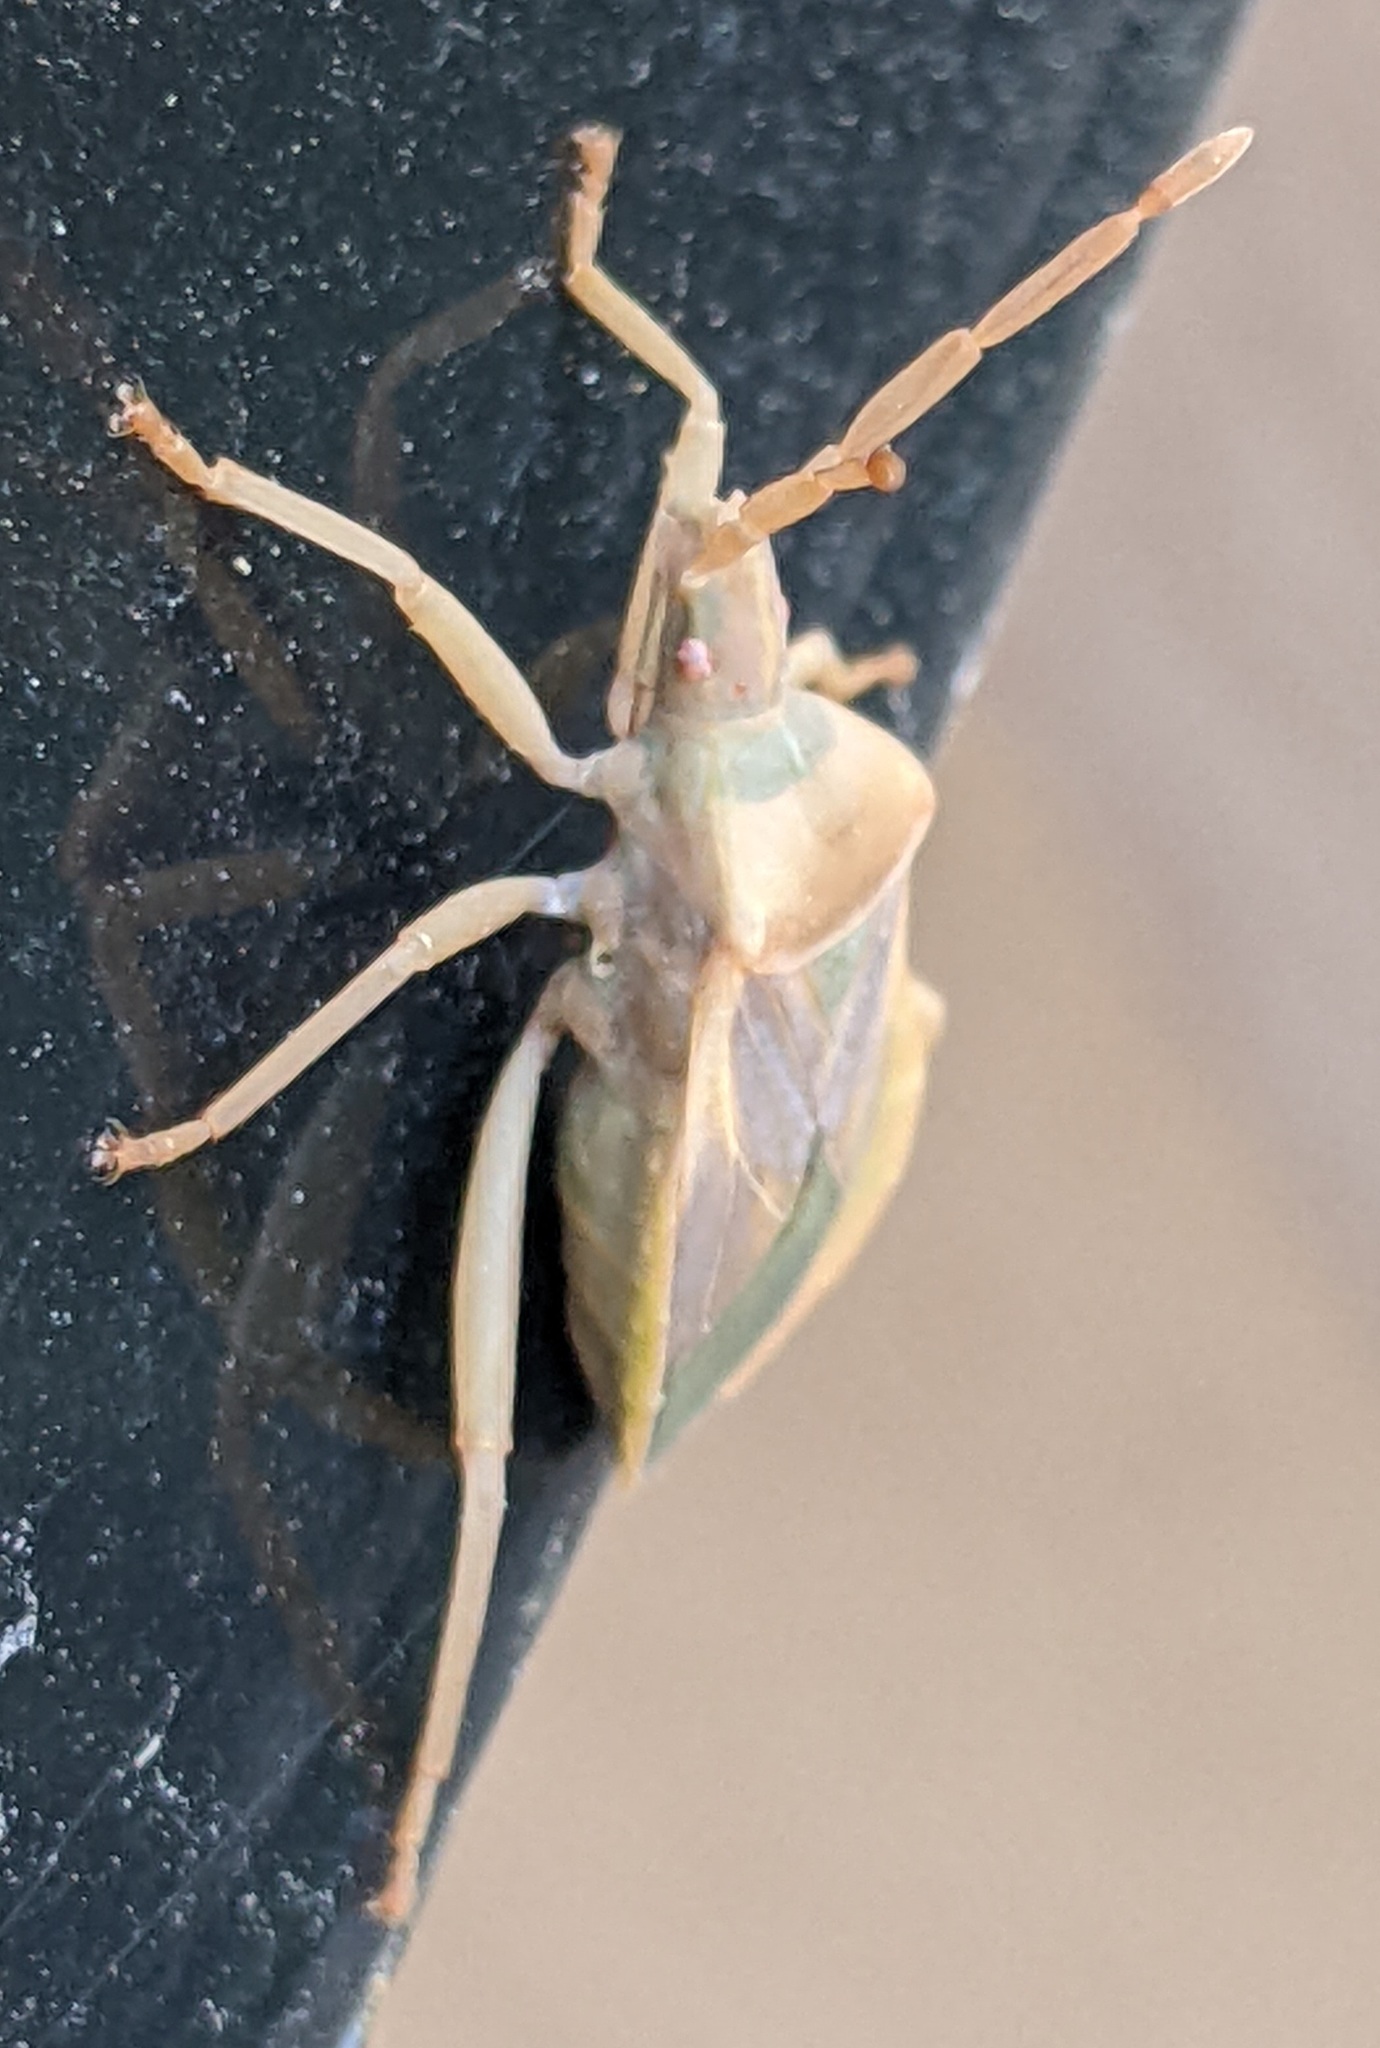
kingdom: Animalia
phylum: Arthropoda
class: Insecta
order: Hemiptera
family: Coreidae
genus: Chelinidea
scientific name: Chelinidea vittiger
